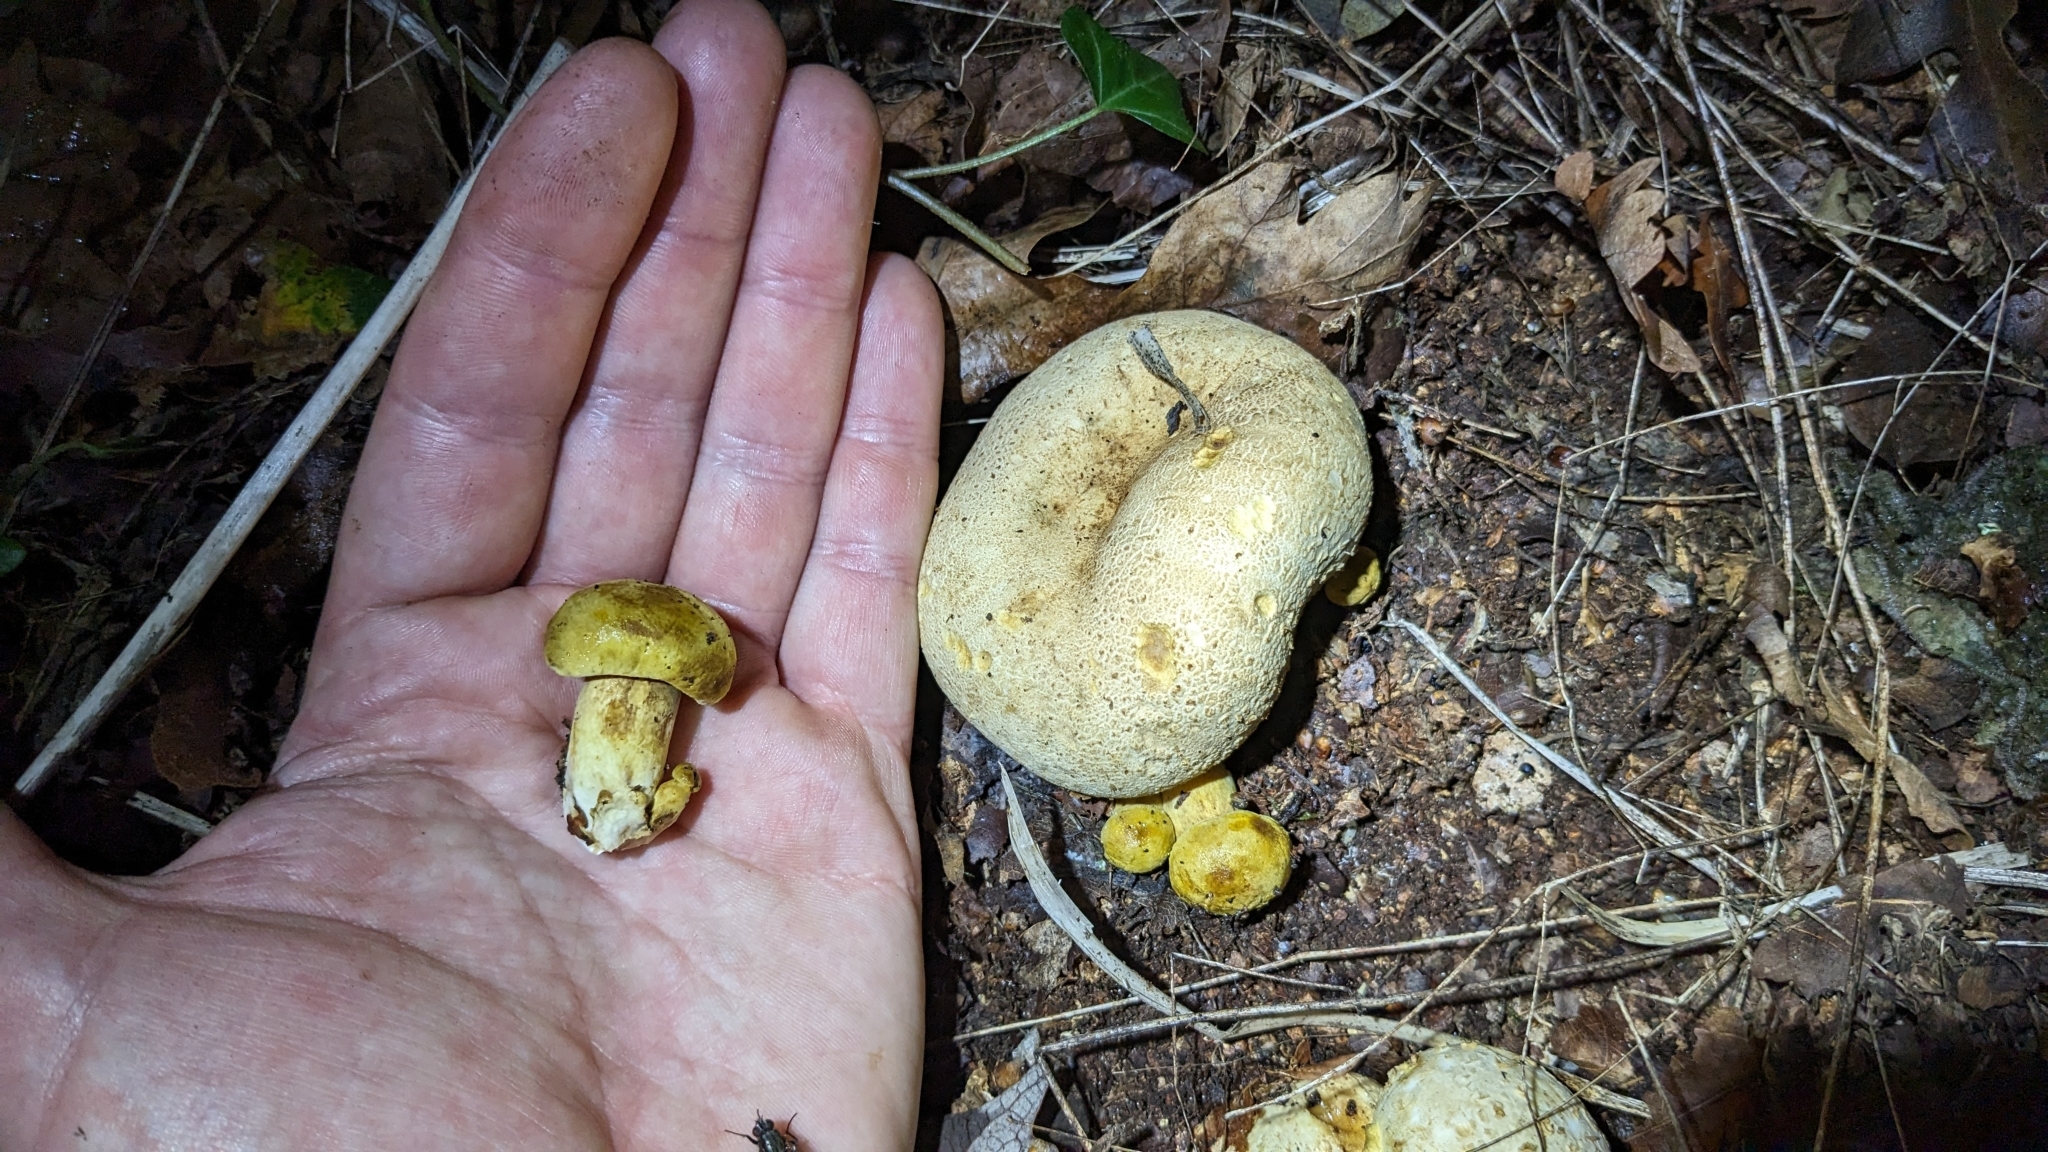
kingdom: Fungi
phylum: Basidiomycota
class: Agaricomycetes
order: Boletales
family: Boletaceae
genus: Pseudoboletus
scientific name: Pseudoboletus parasiticus
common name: Parasitic bolete
